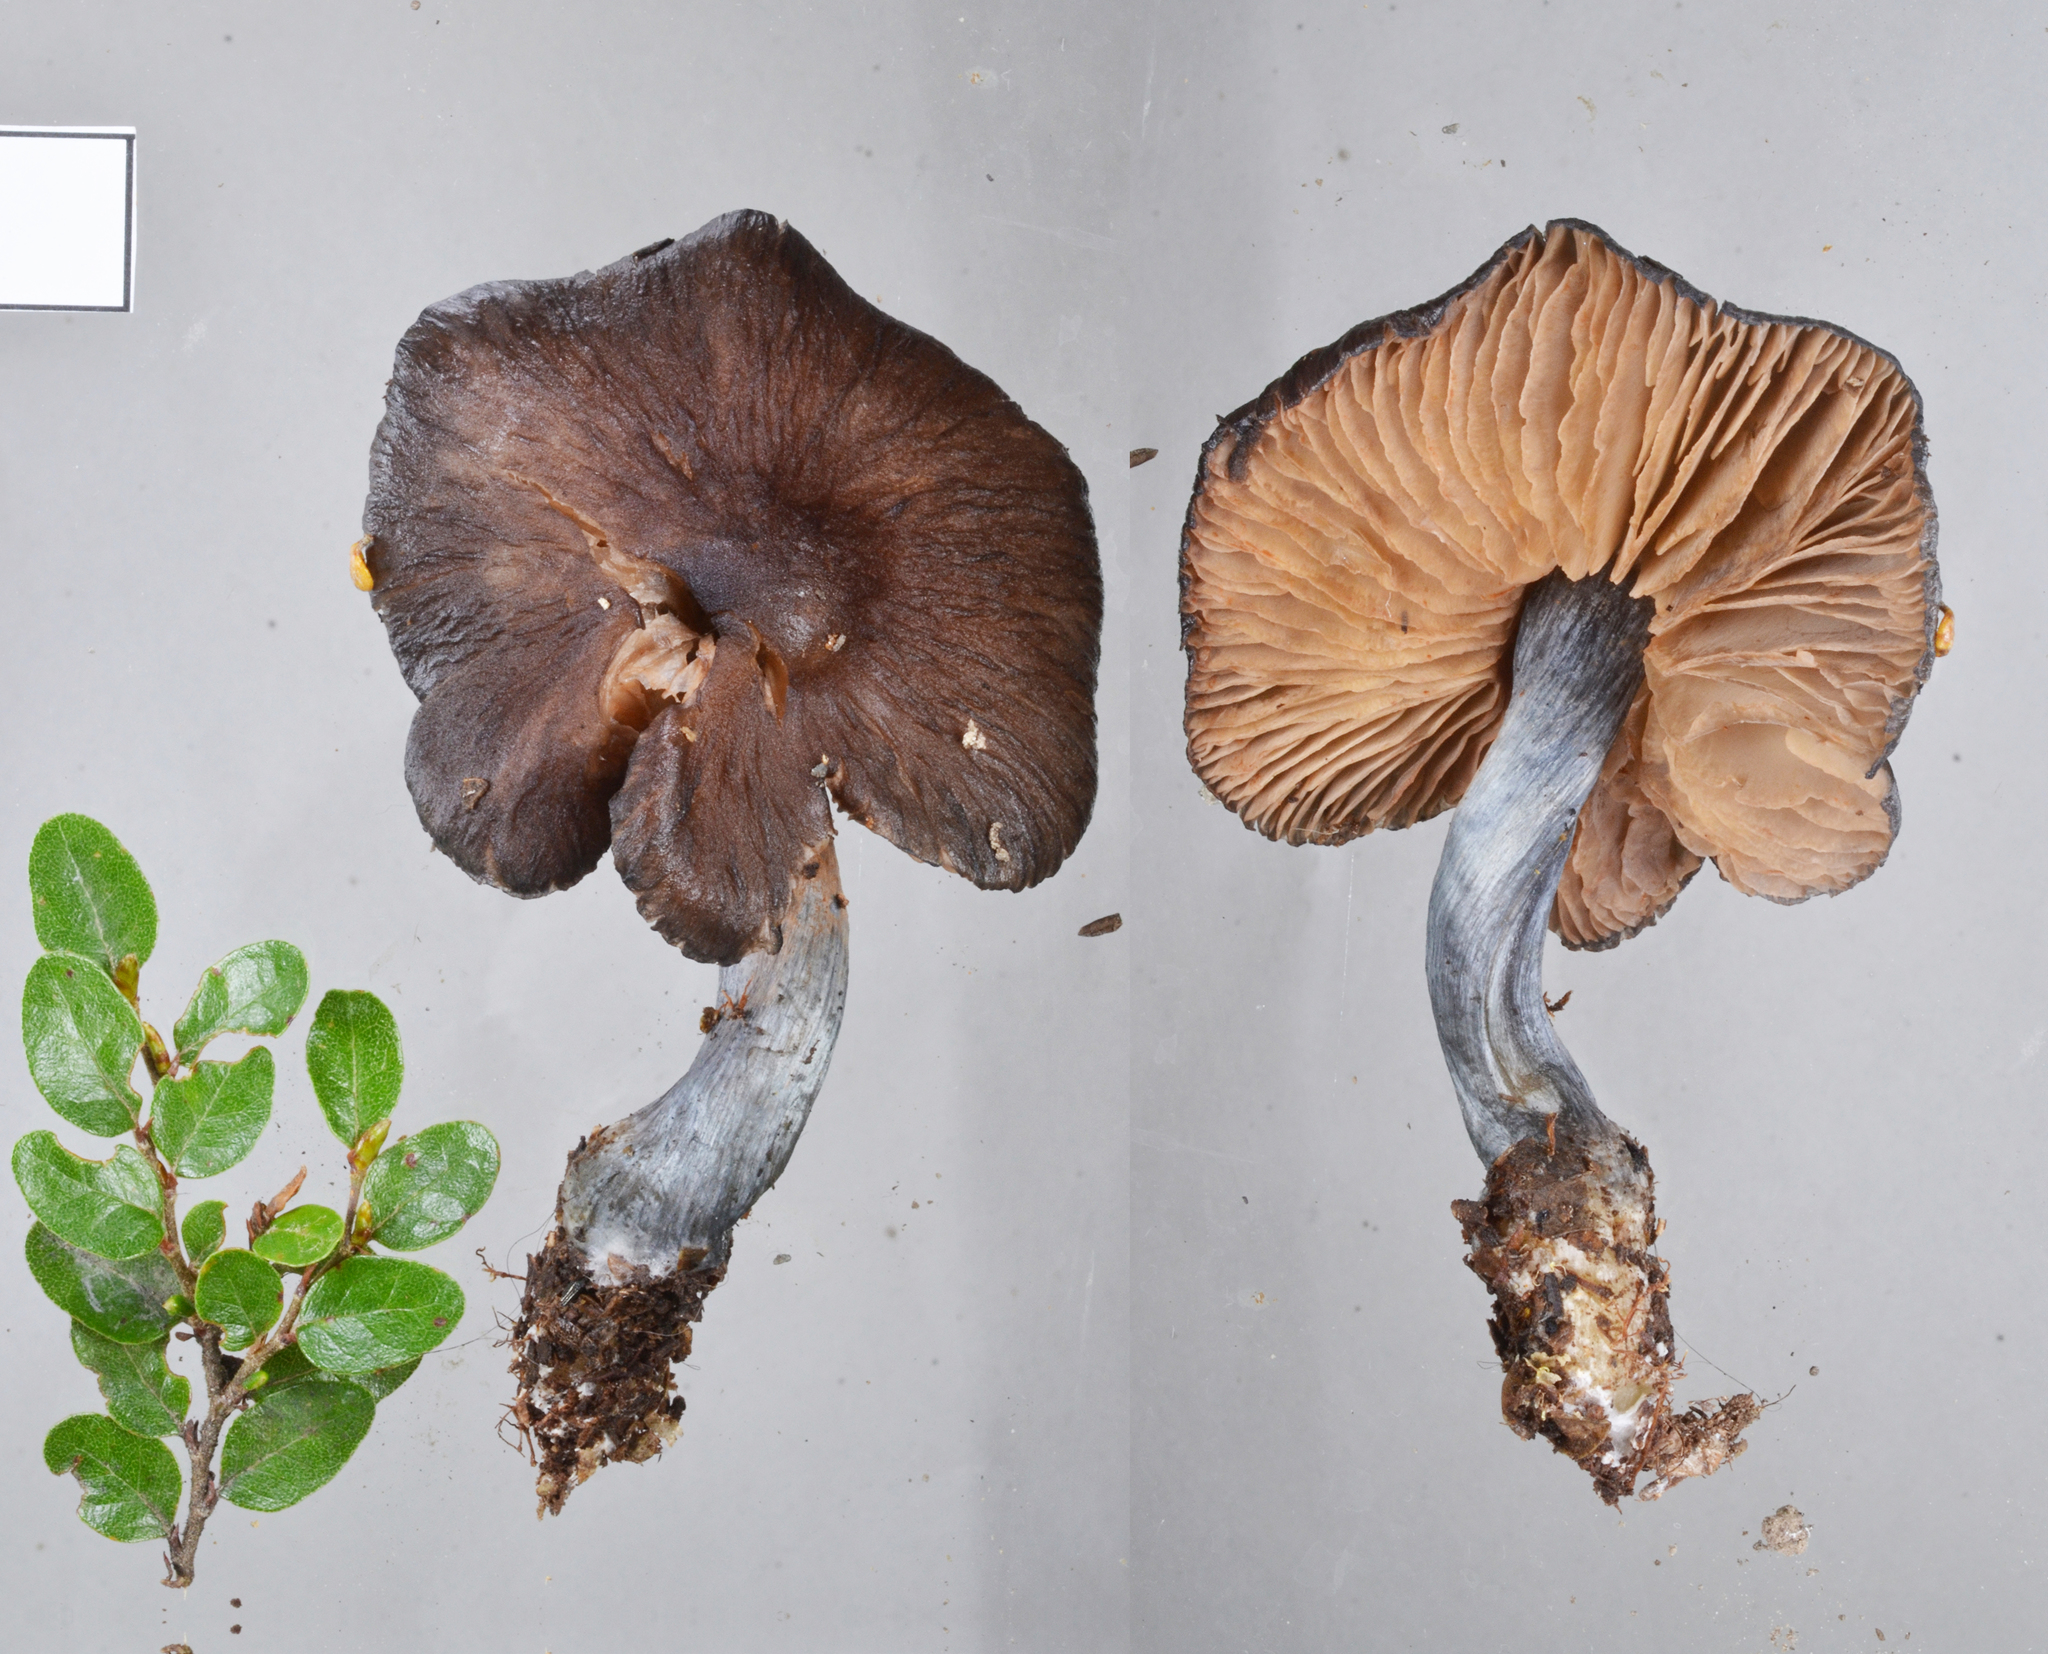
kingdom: Fungi
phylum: Basidiomycota
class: Agaricomycetes
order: Agaricales
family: Entolomataceae
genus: Entocybe
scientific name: Entocybe haastii
